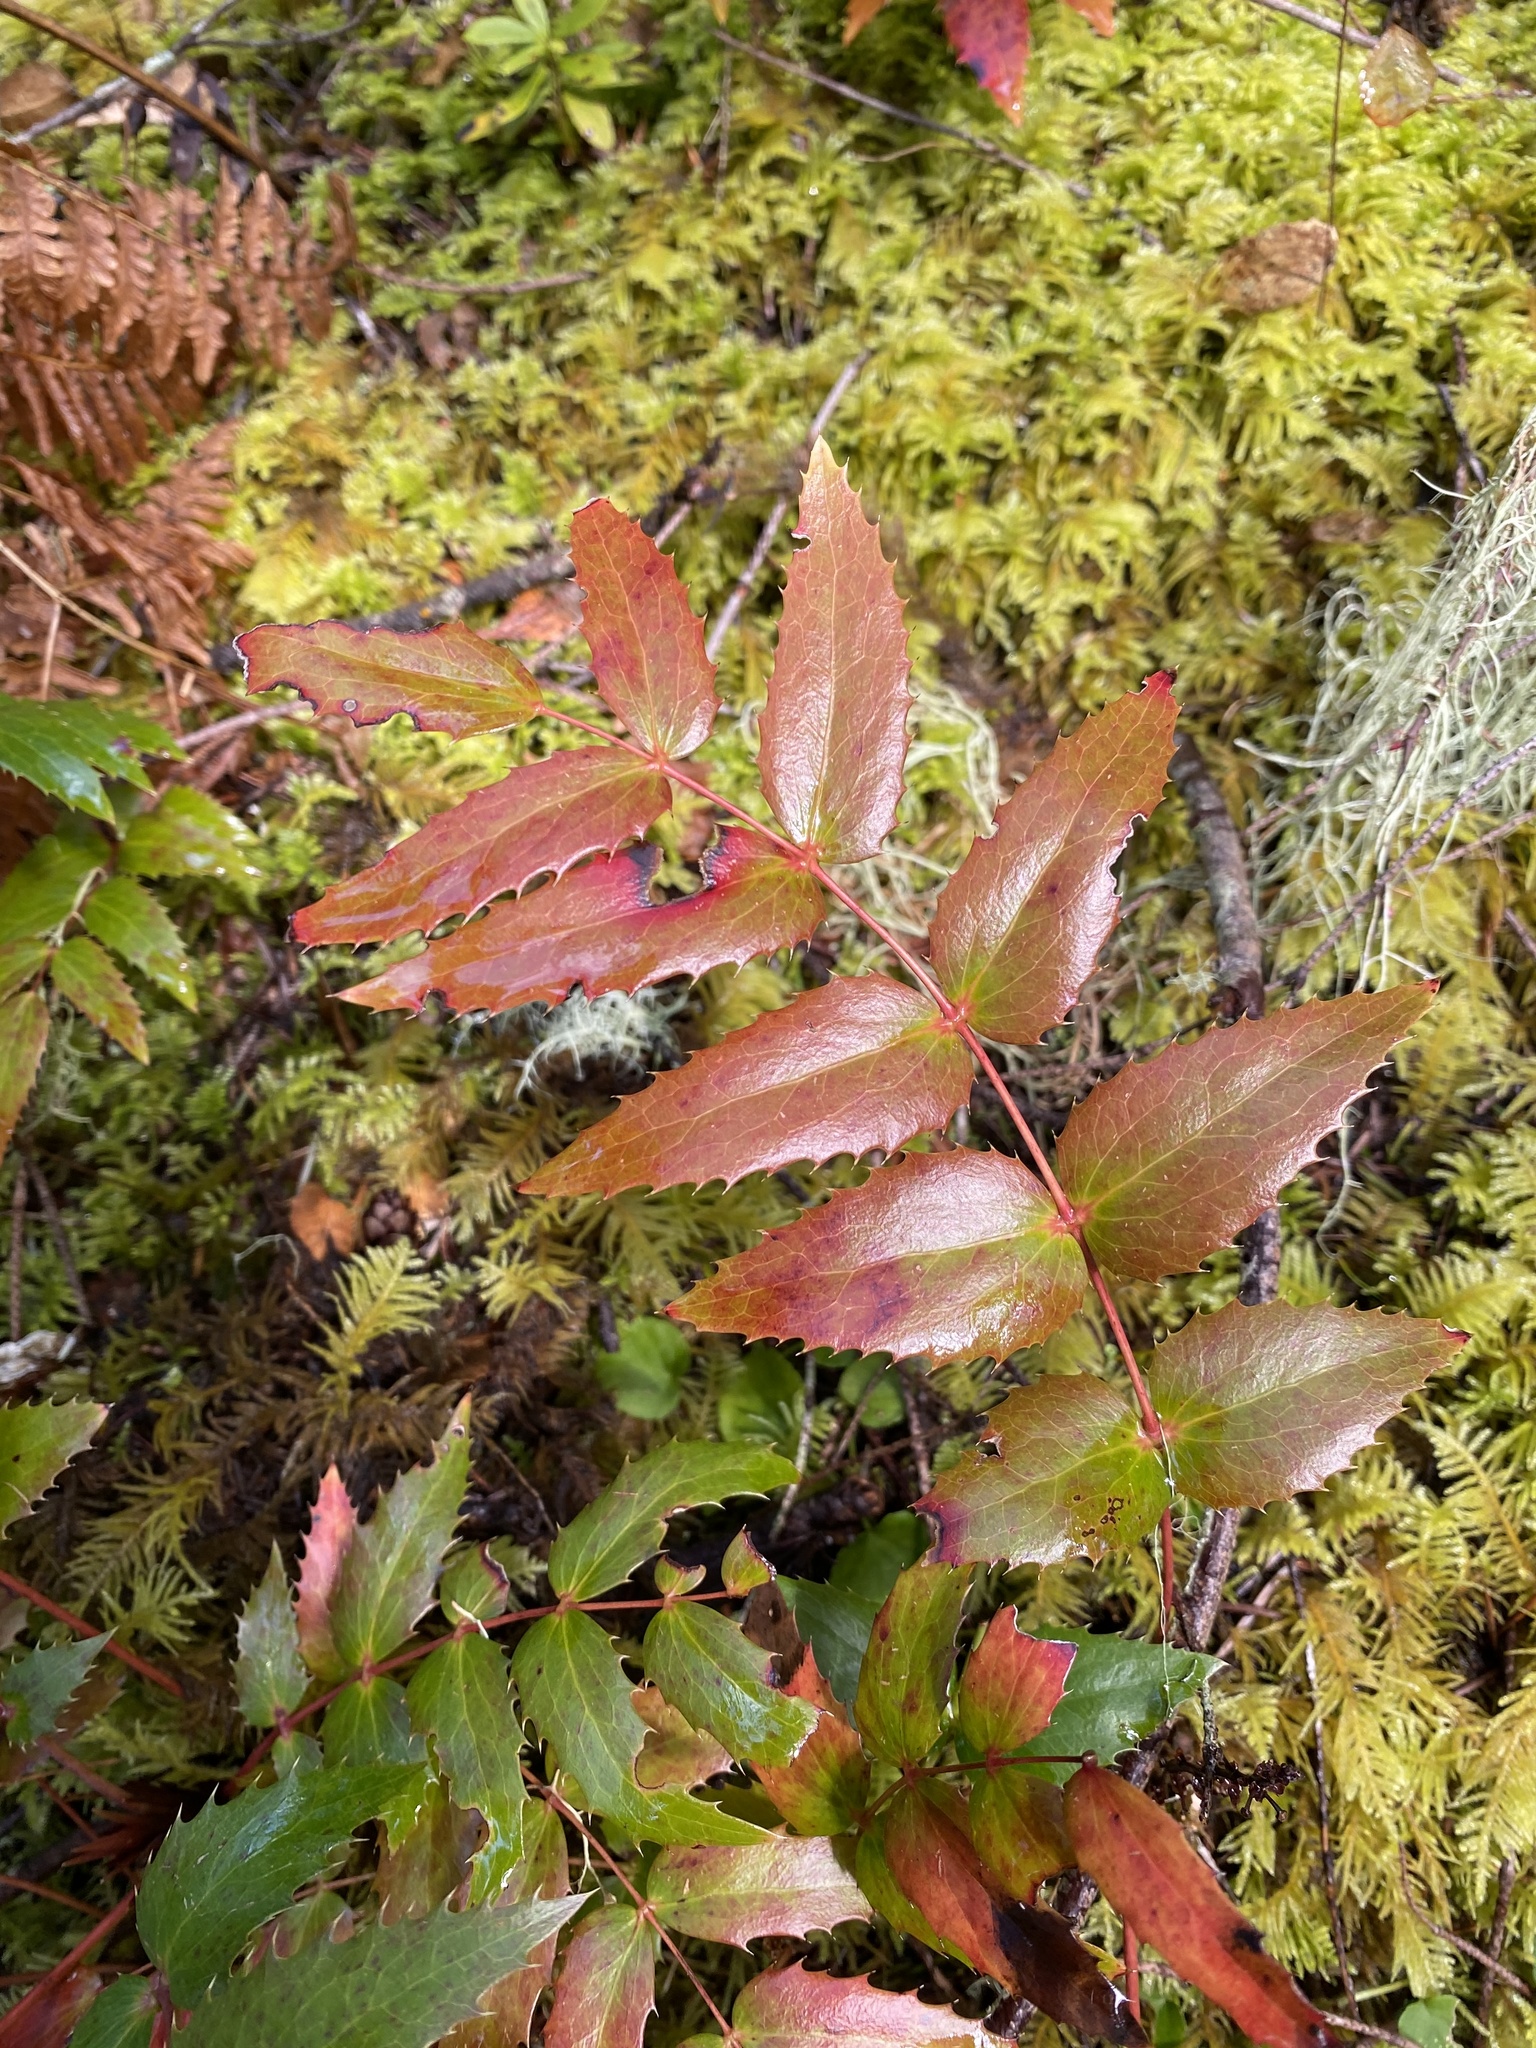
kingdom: Plantae
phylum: Tracheophyta
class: Magnoliopsida
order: Ranunculales
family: Berberidaceae
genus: Mahonia
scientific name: Mahonia nervosa
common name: Cascade oregon-grape
